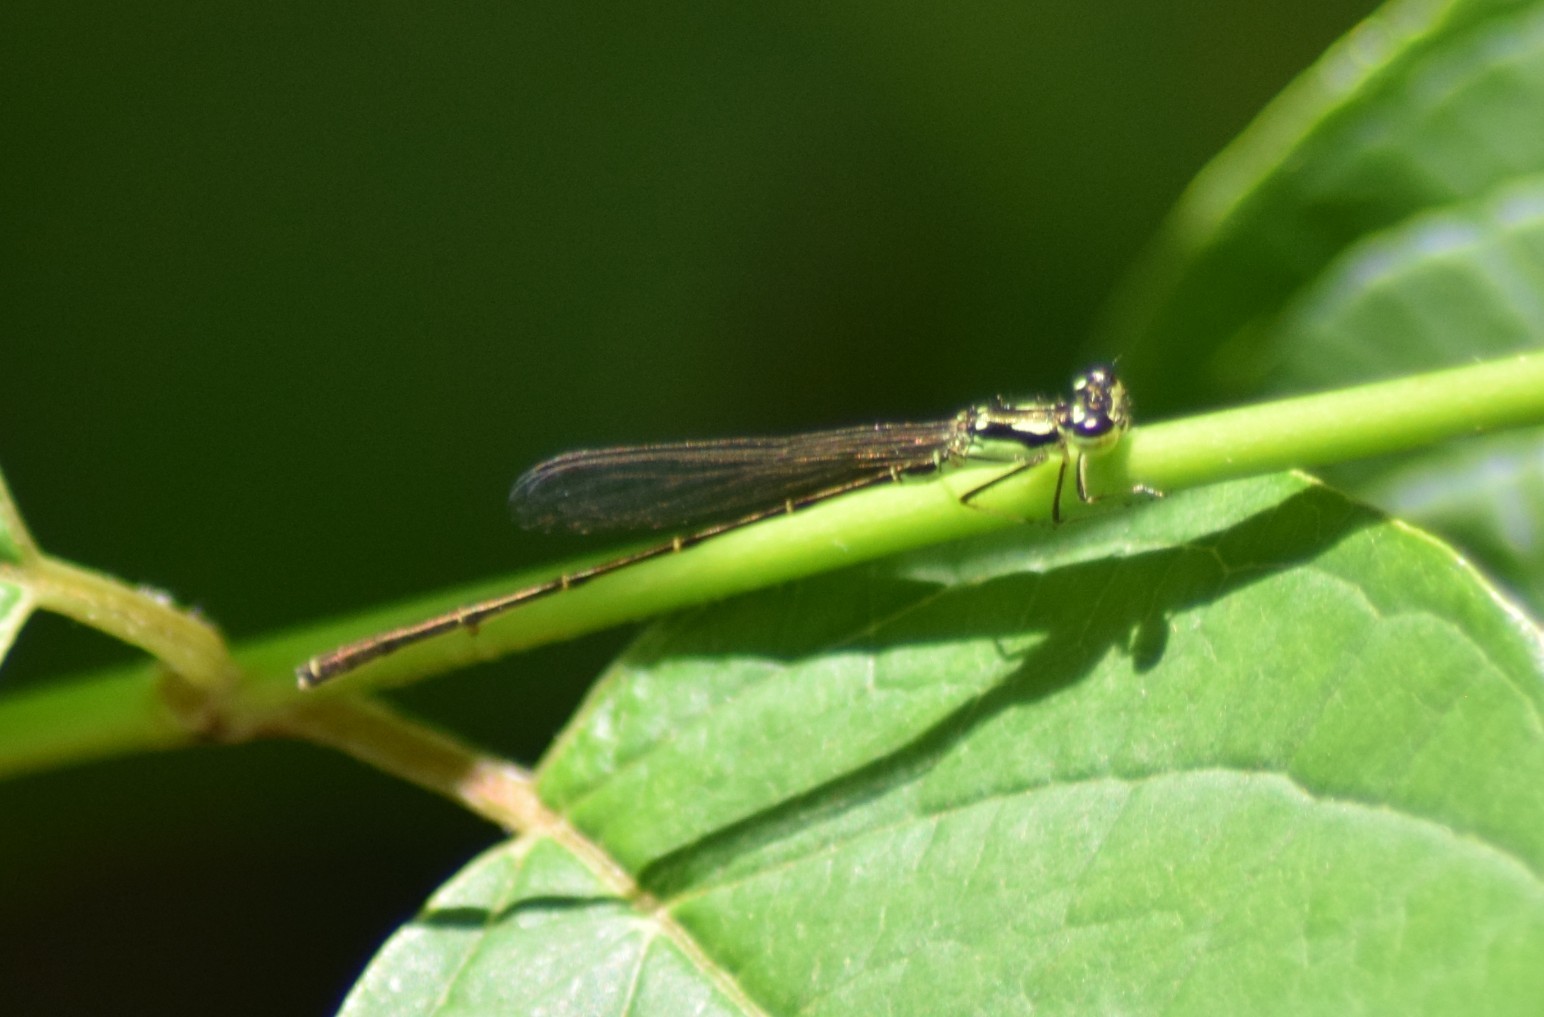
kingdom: Animalia
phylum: Arthropoda
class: Insecta
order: Odonata
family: Coenagrionidae
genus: Ischnura
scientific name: Ischnura posita
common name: Fragile forktail
